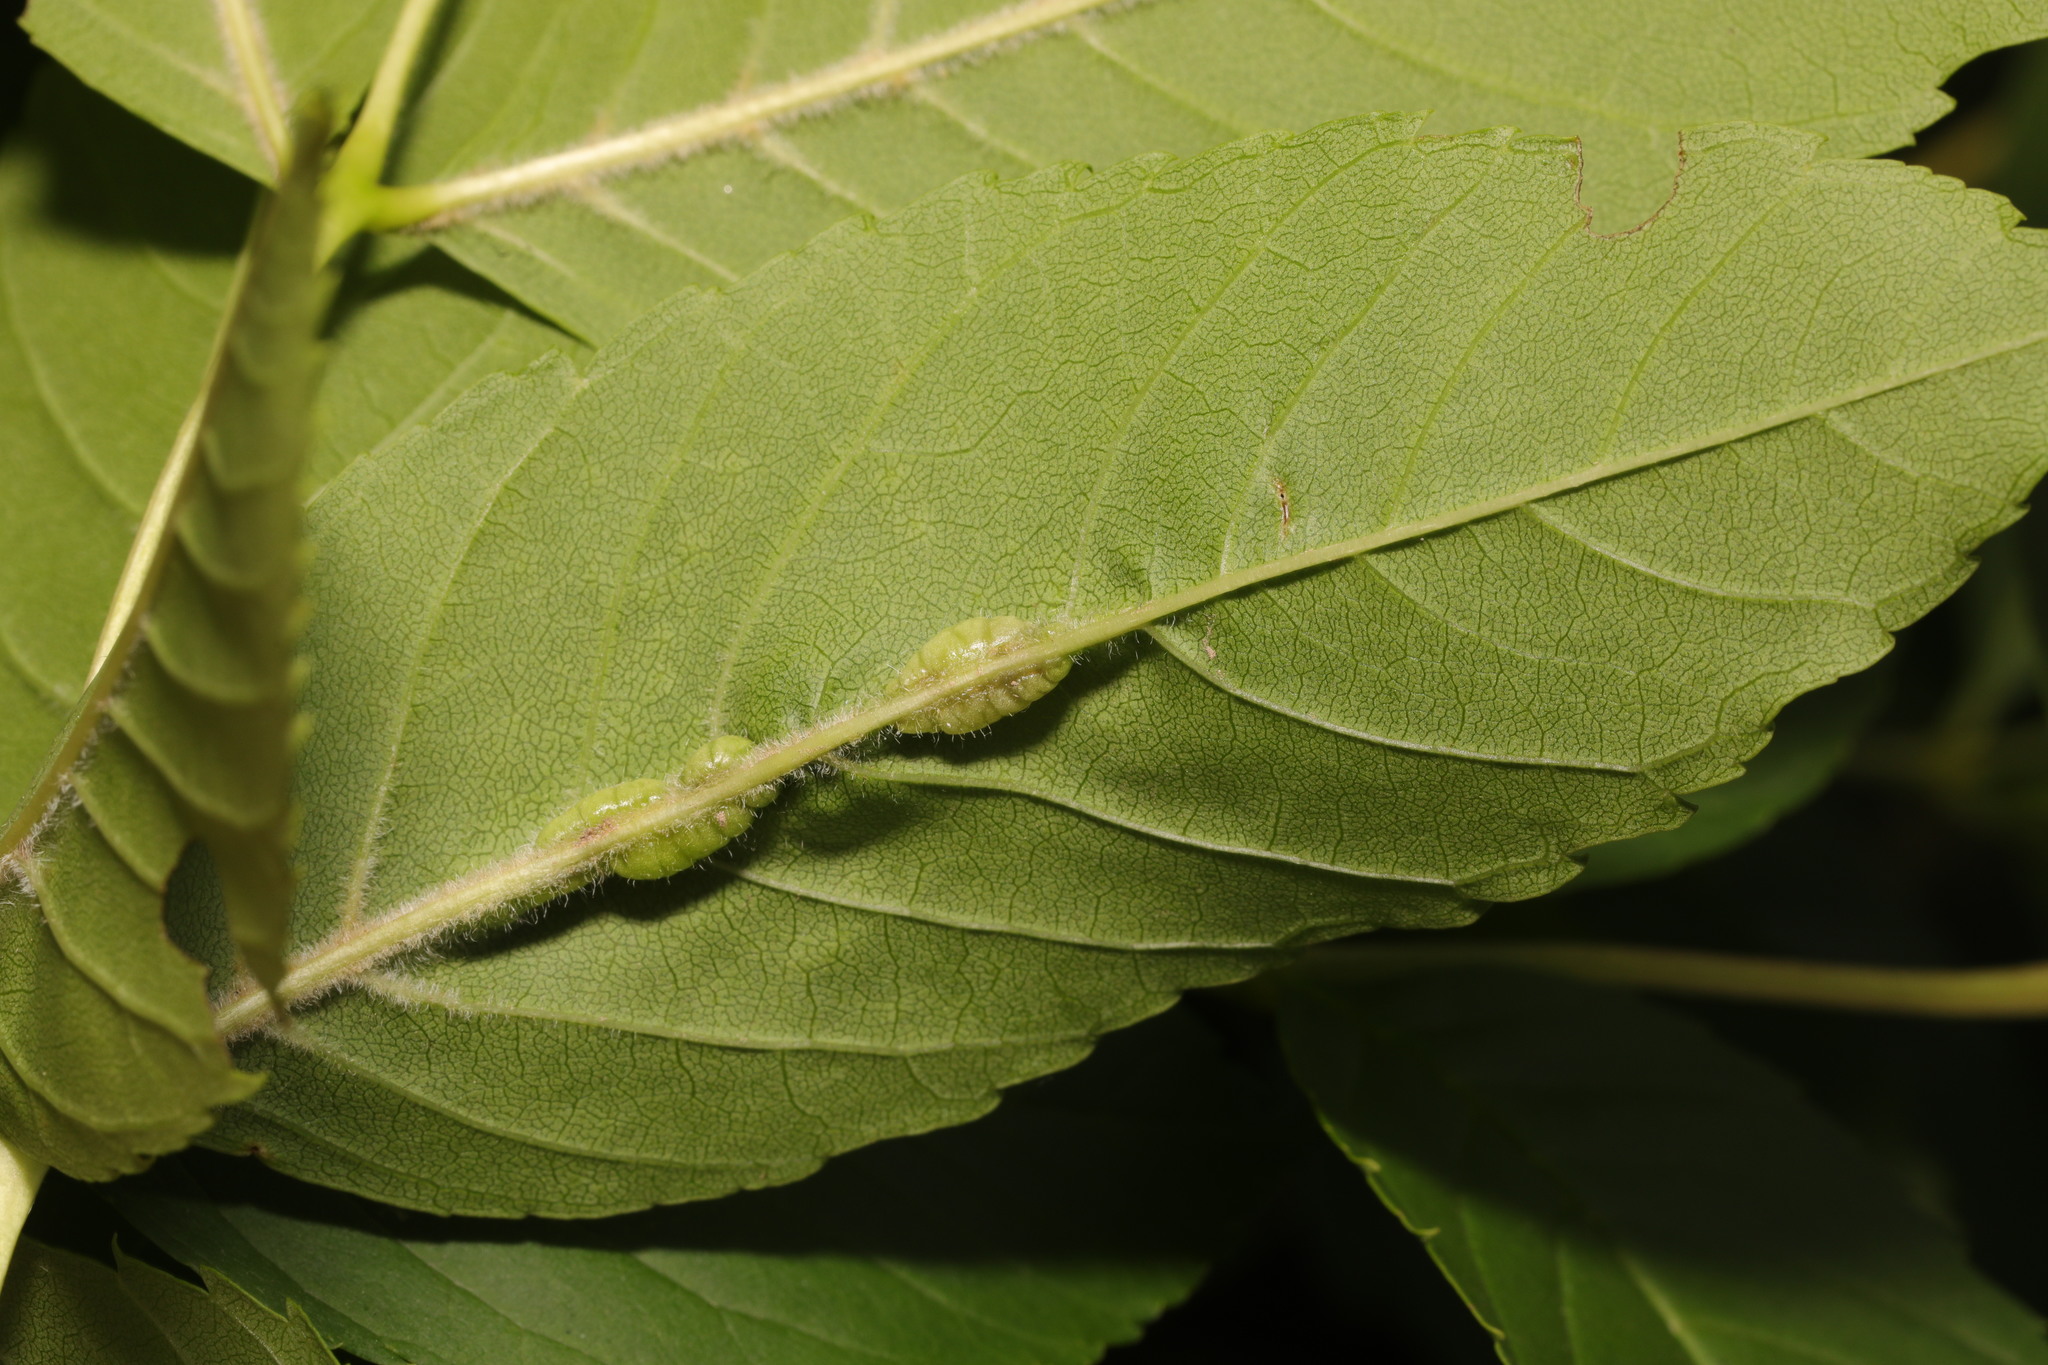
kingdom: Animalia
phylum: Arthropoda
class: Insecta
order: Diptera
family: Cecidomyiidae
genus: Dasineura
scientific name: Dasineura fraxini
